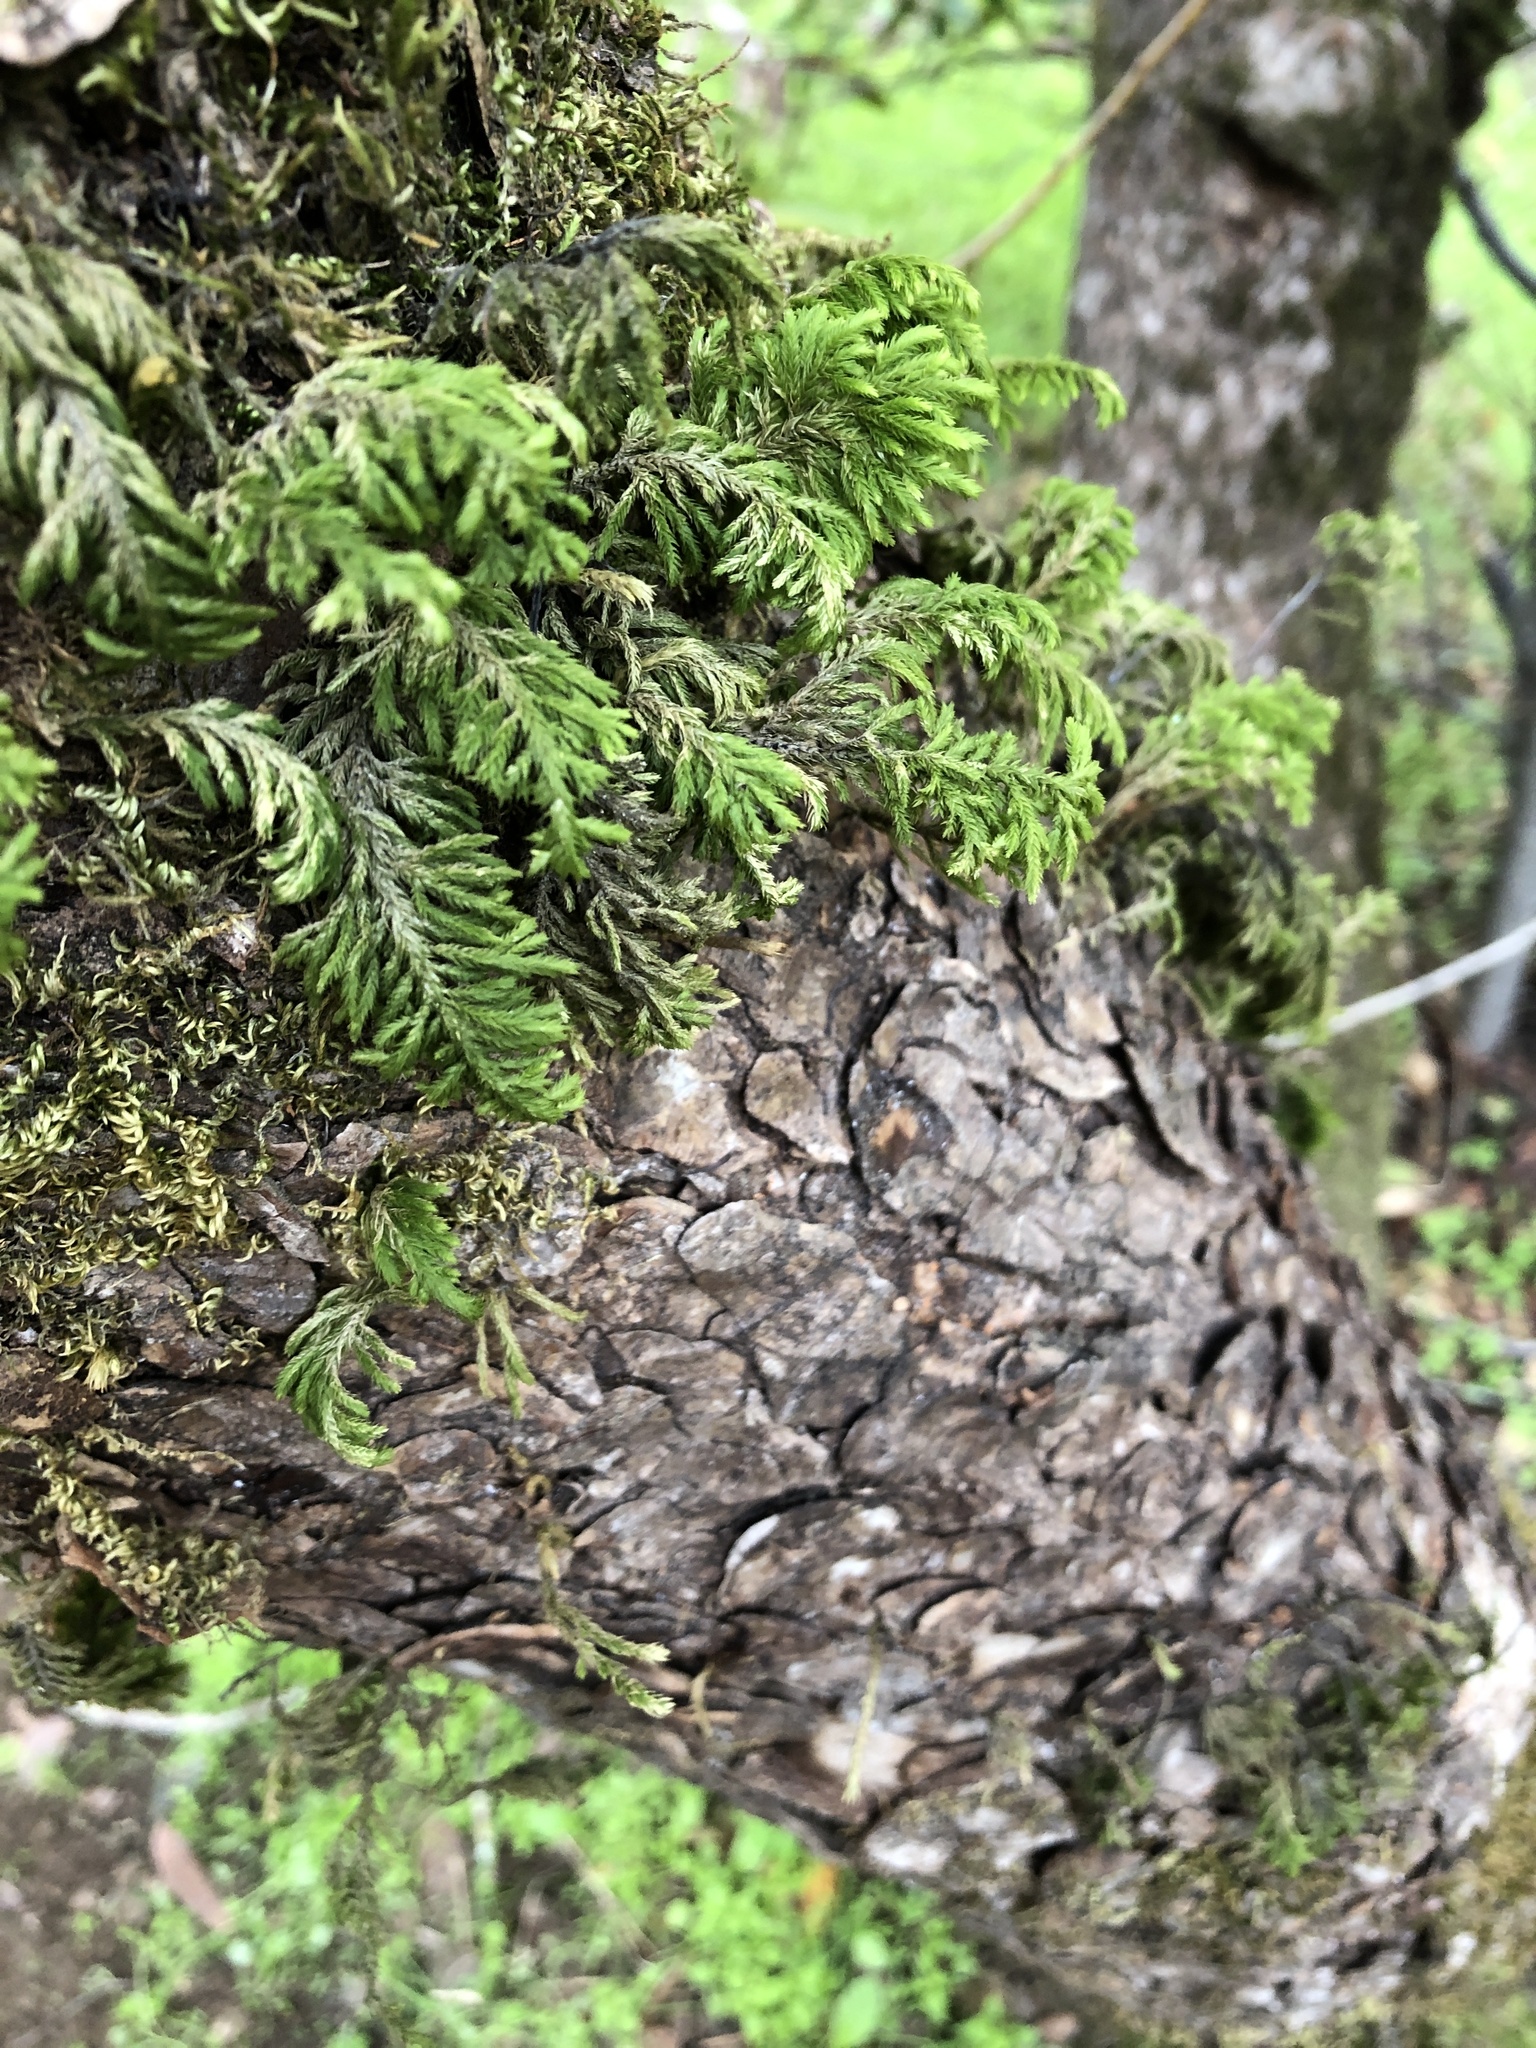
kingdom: Plantae
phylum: Bryophyta
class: Bryopsida
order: Hypnales
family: Cryphaeaceae
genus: Dendroalsia
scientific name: Dendroalsia abietina
